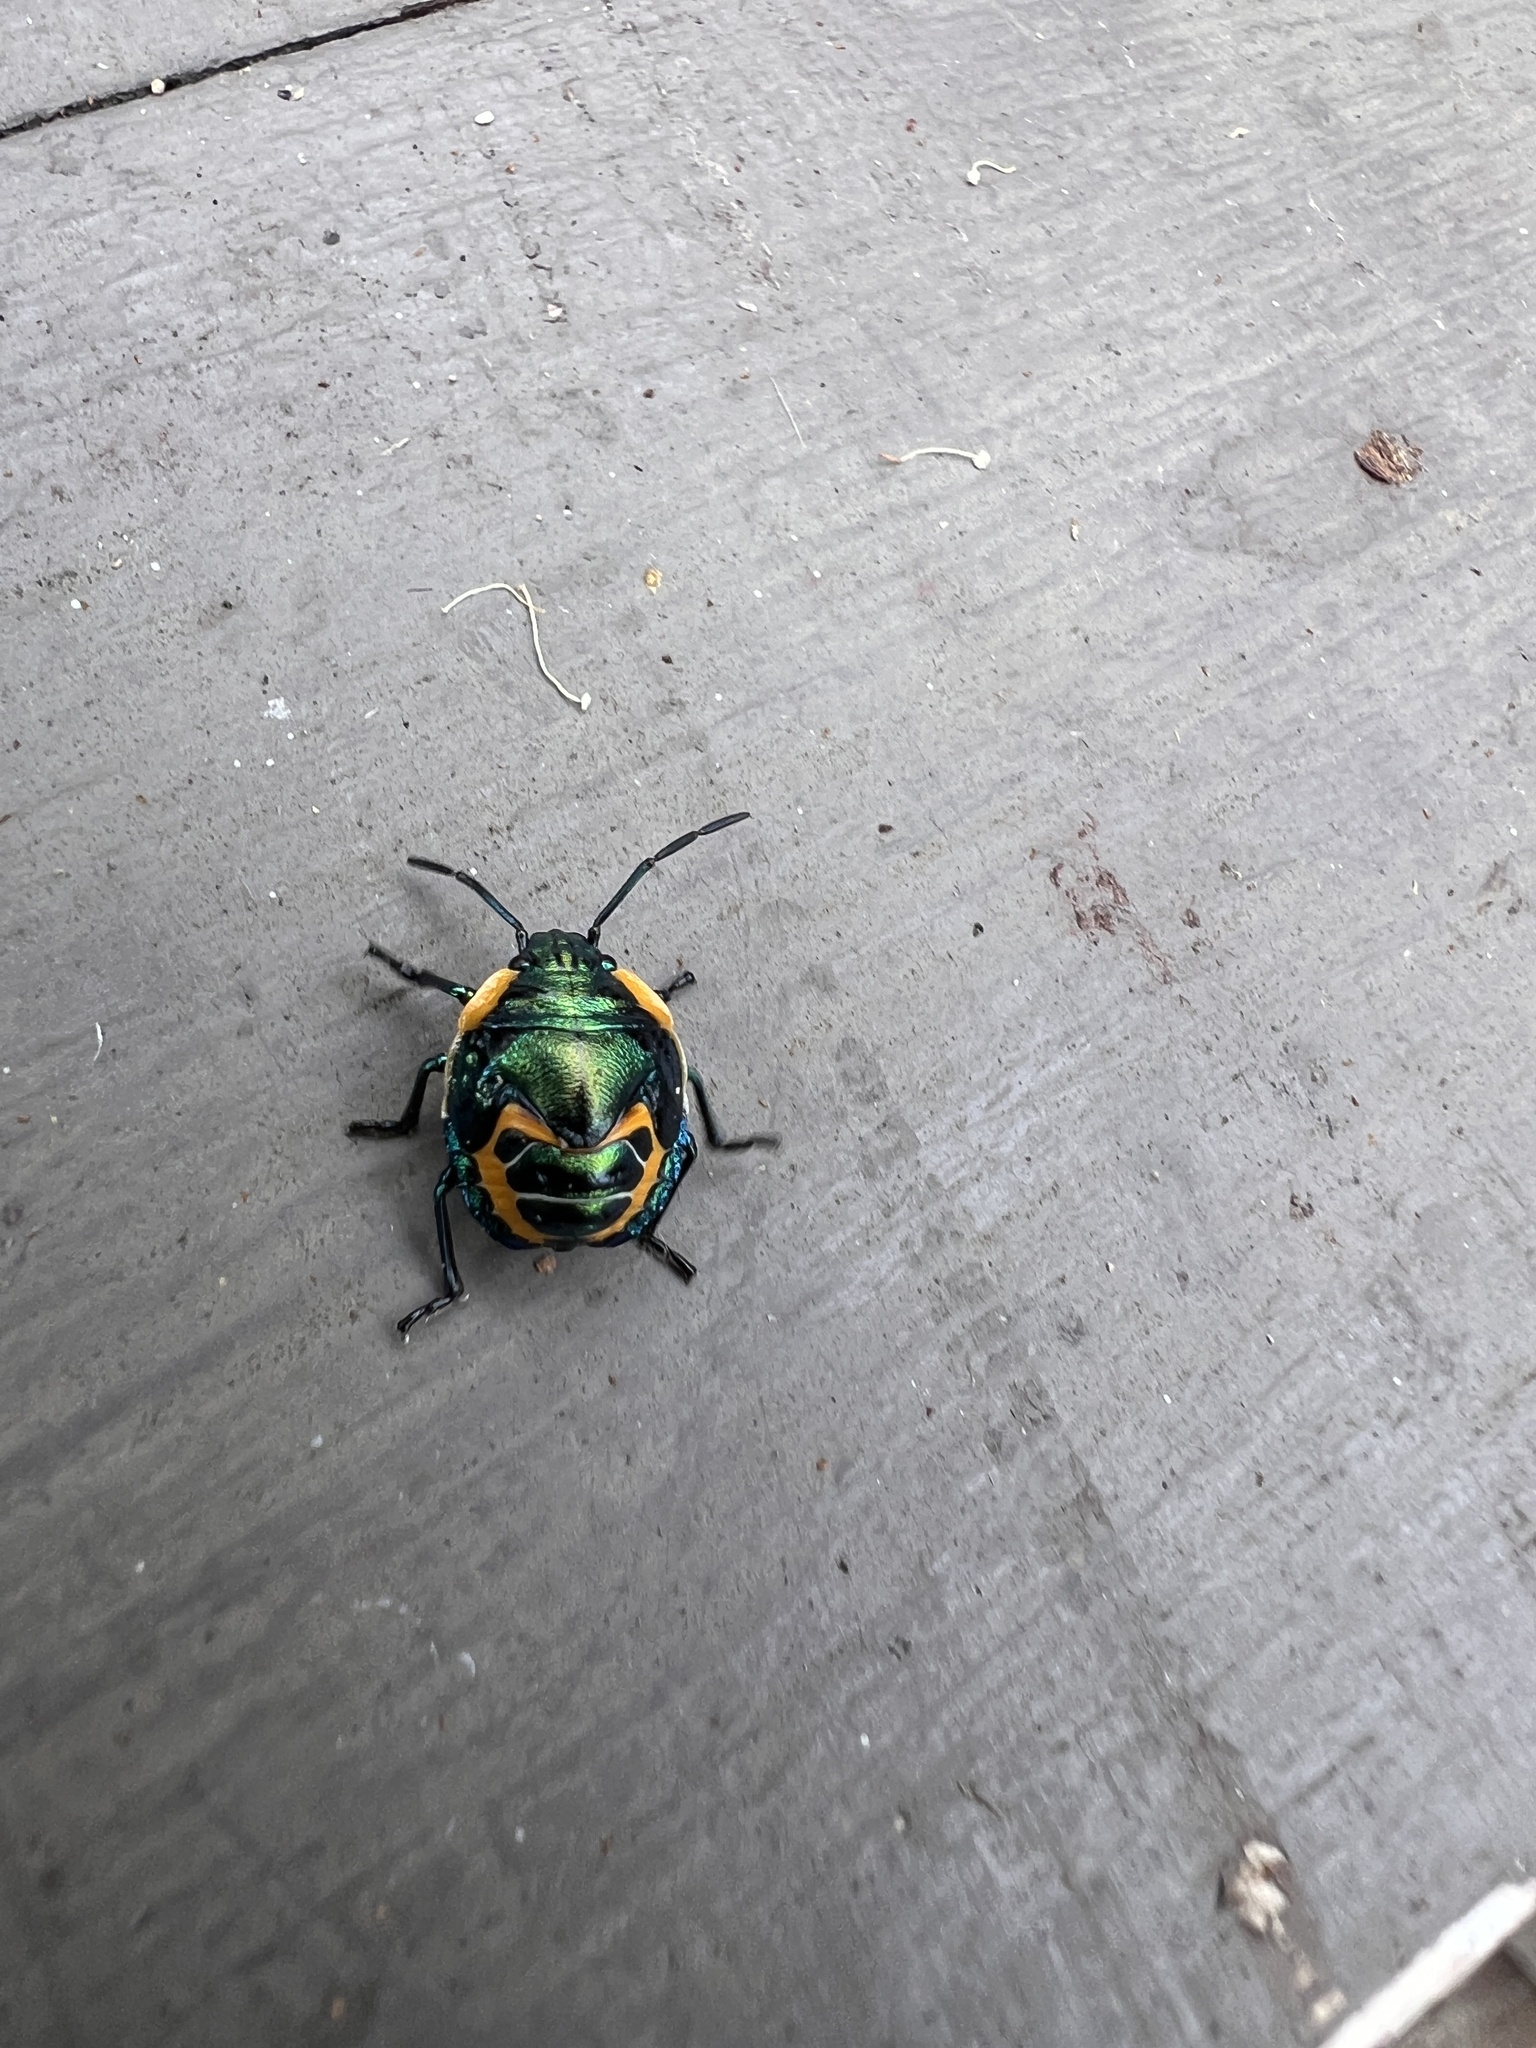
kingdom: Animalia
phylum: Arthropoda
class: Insecta
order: Hemiptera
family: Scutelleridae
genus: Scutiphora
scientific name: Scutiphora pedicellata
